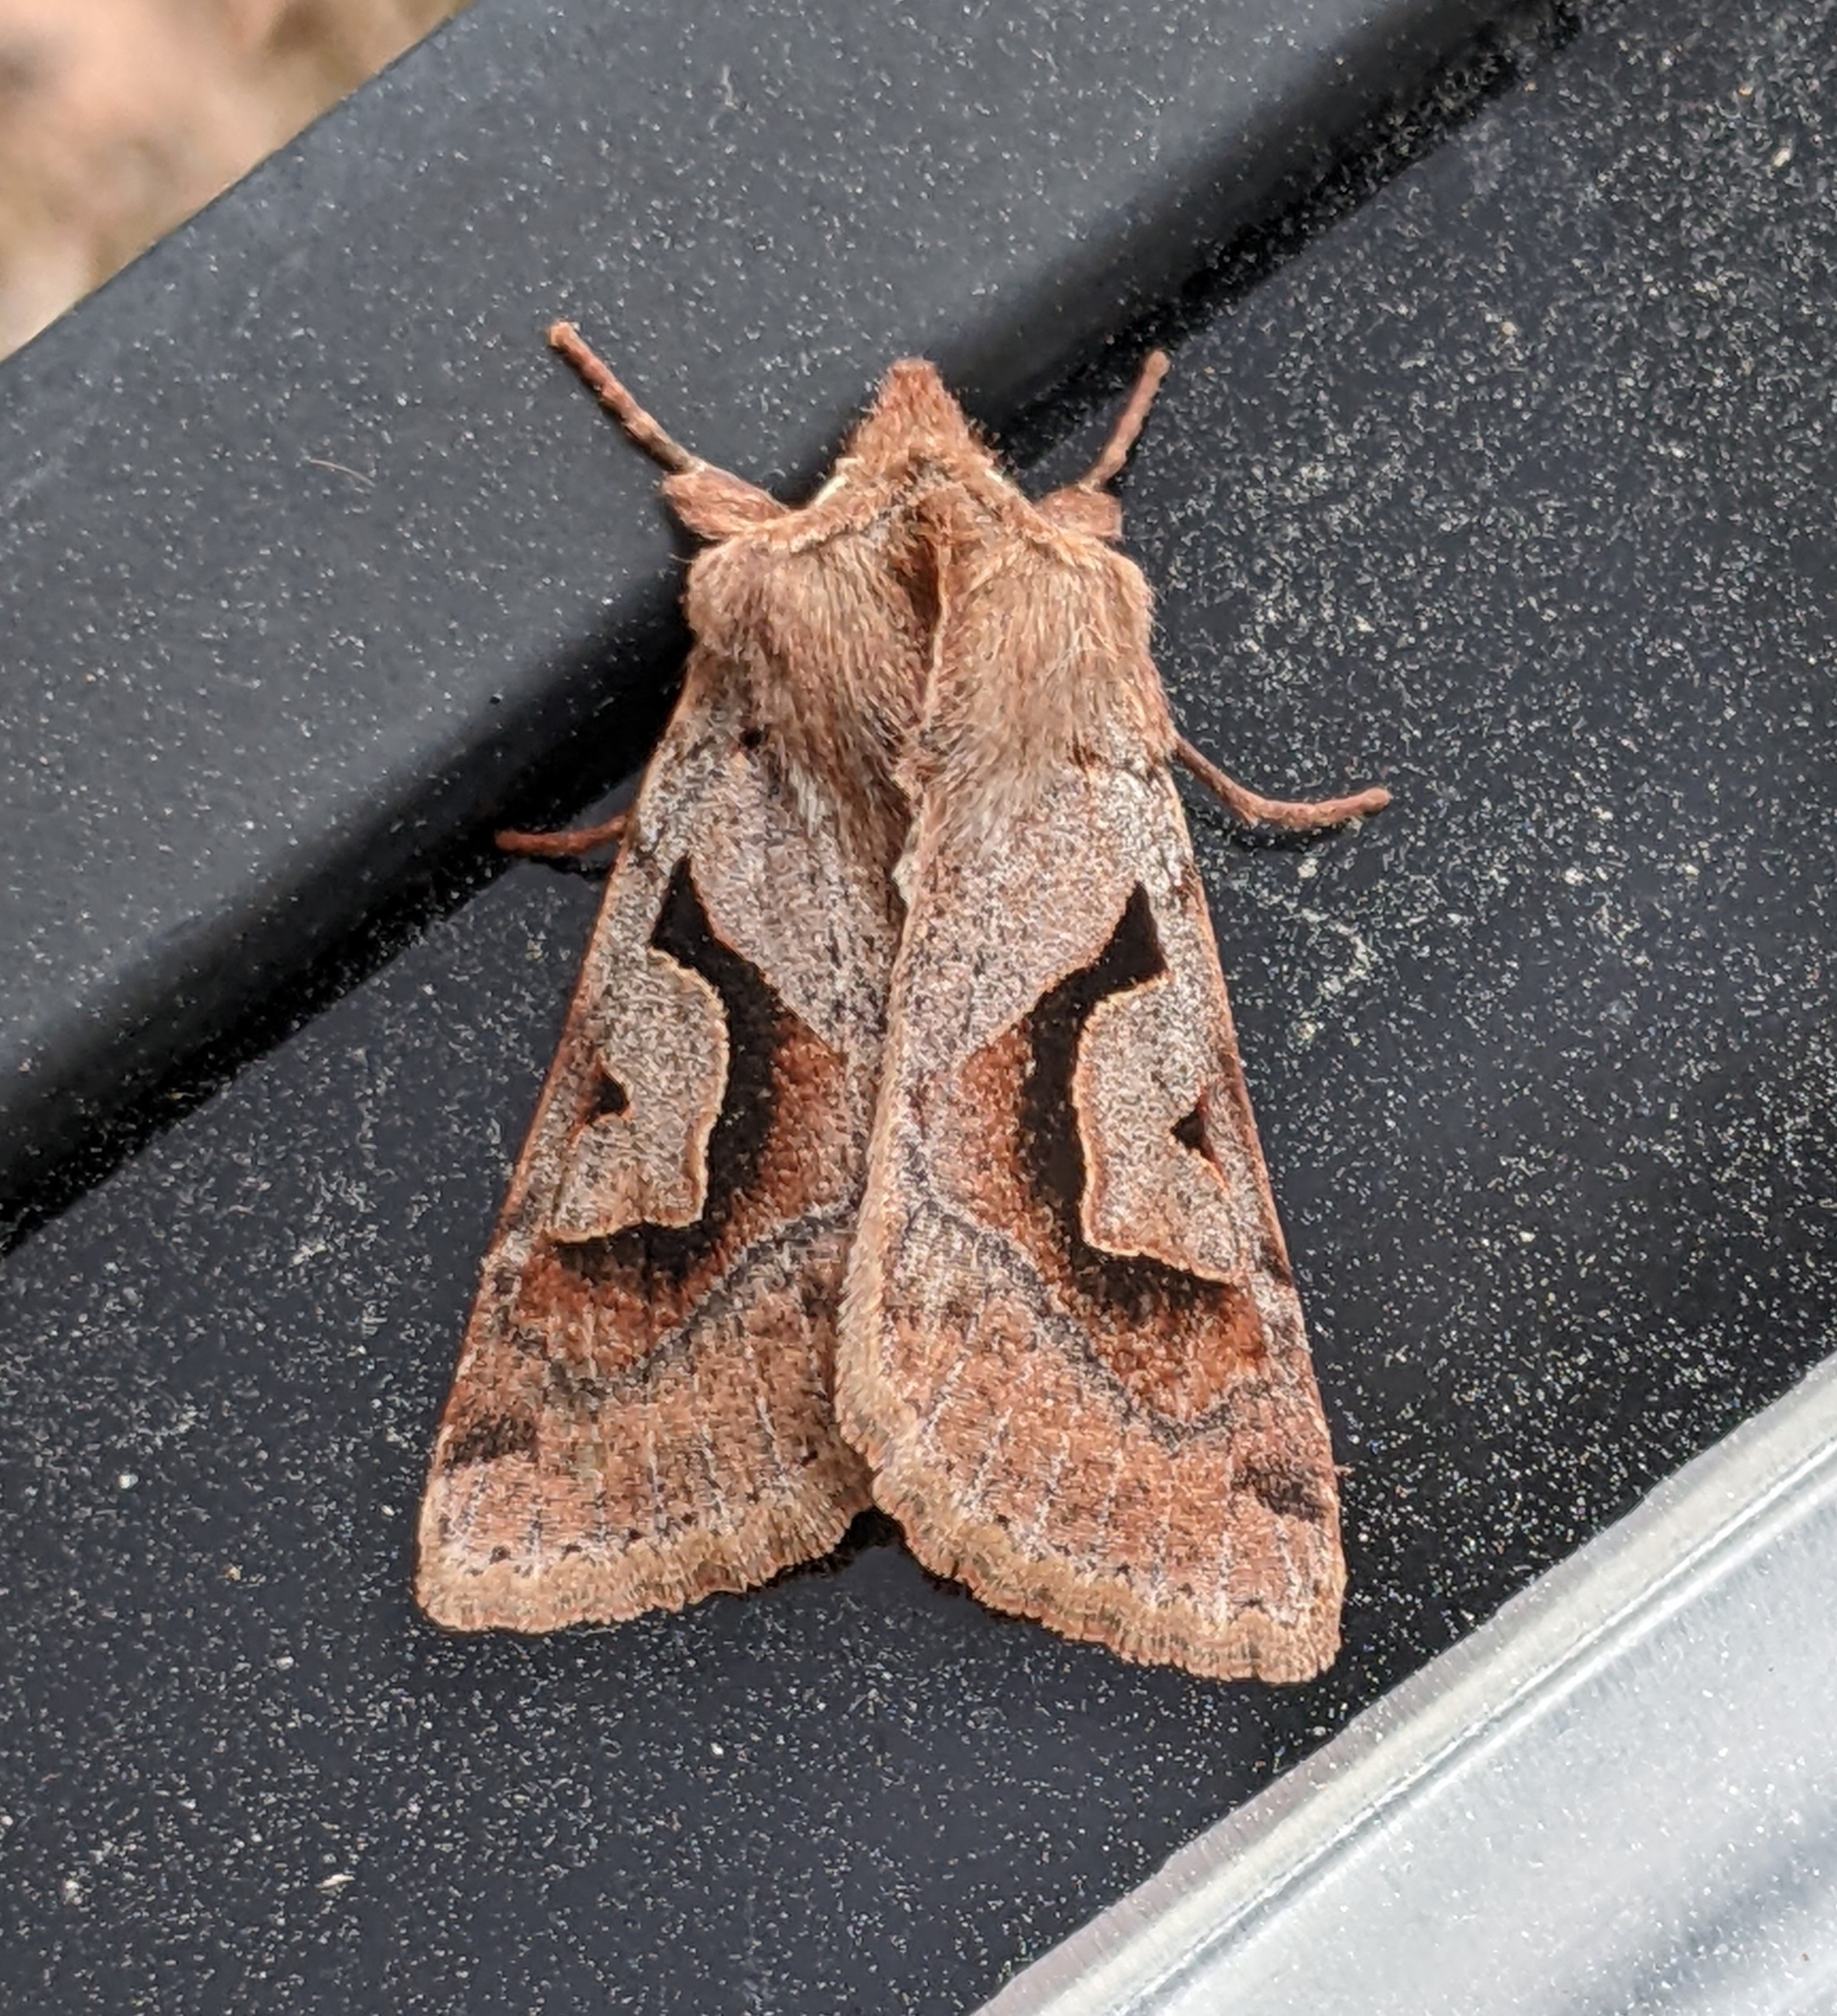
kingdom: Animalia
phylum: Arthropoda
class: Insecta
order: Lepidoptera
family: Noctuidae
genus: Acerra
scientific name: Acerra normalis
